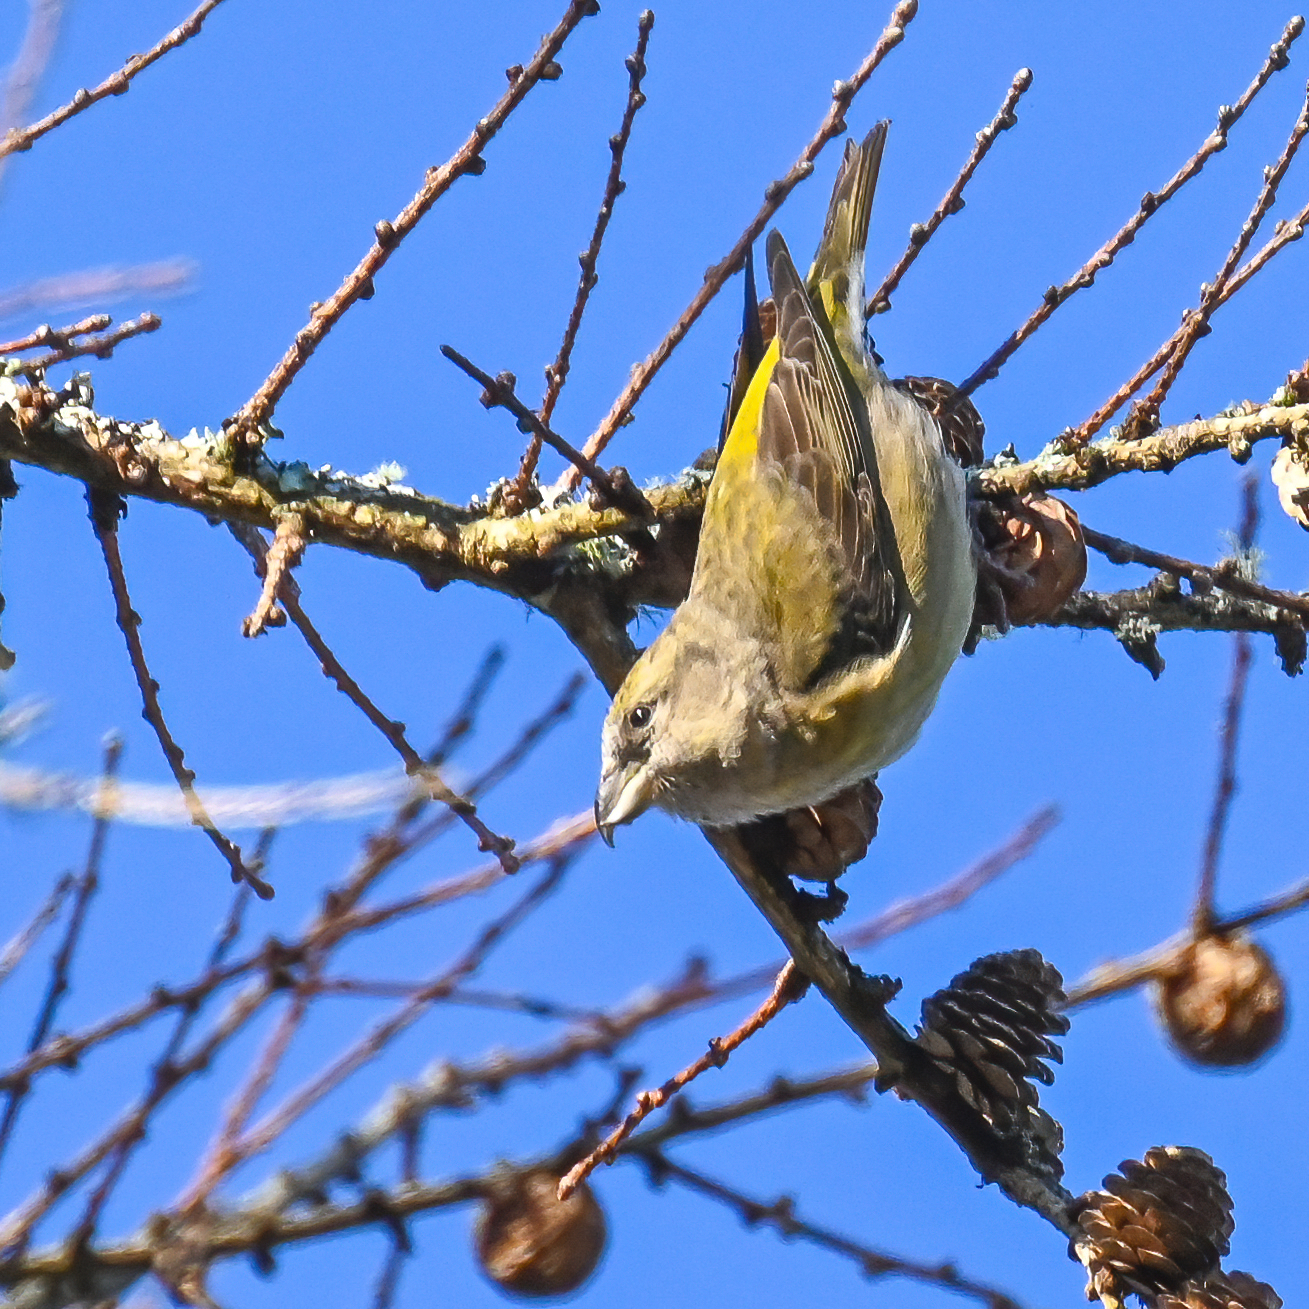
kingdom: Animalia
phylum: Chordata
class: Aves
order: Passeriformes
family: Fringillidae
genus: Loxia
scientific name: Loxia curvirostra
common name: Red crossbill
